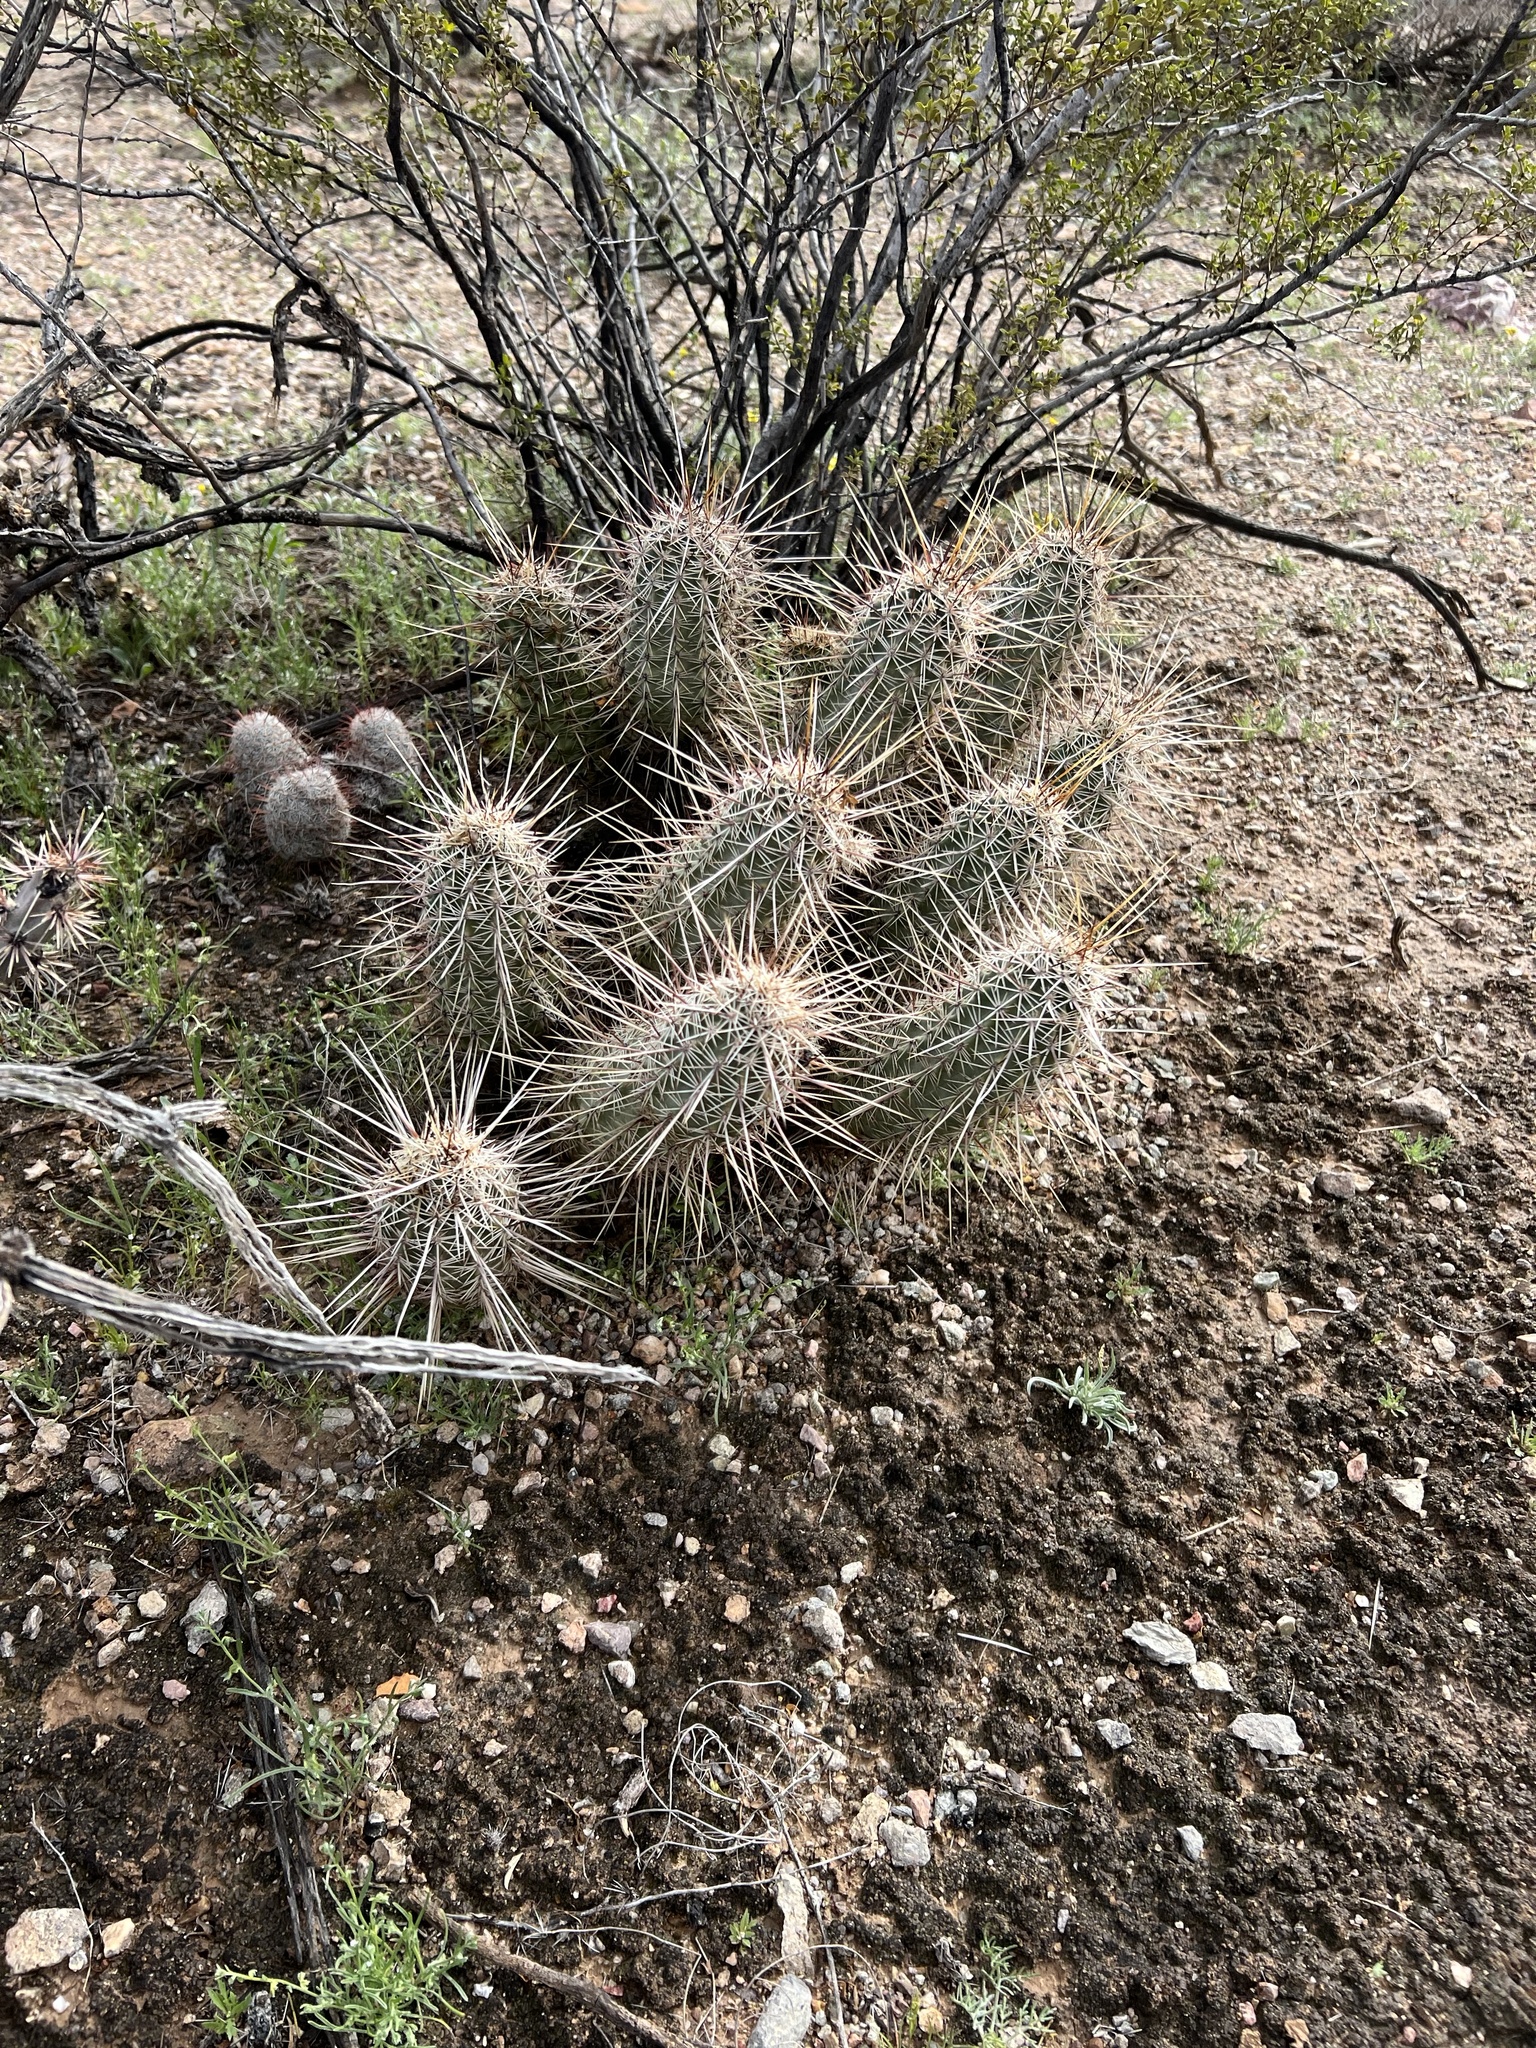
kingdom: Plantae
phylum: Tracheophyta
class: Magnoliopsida
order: Caryophyllales
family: Cactaceae
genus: Echinocereus
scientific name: Echinocereus fasciculatus
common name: Bundle hedgehog
